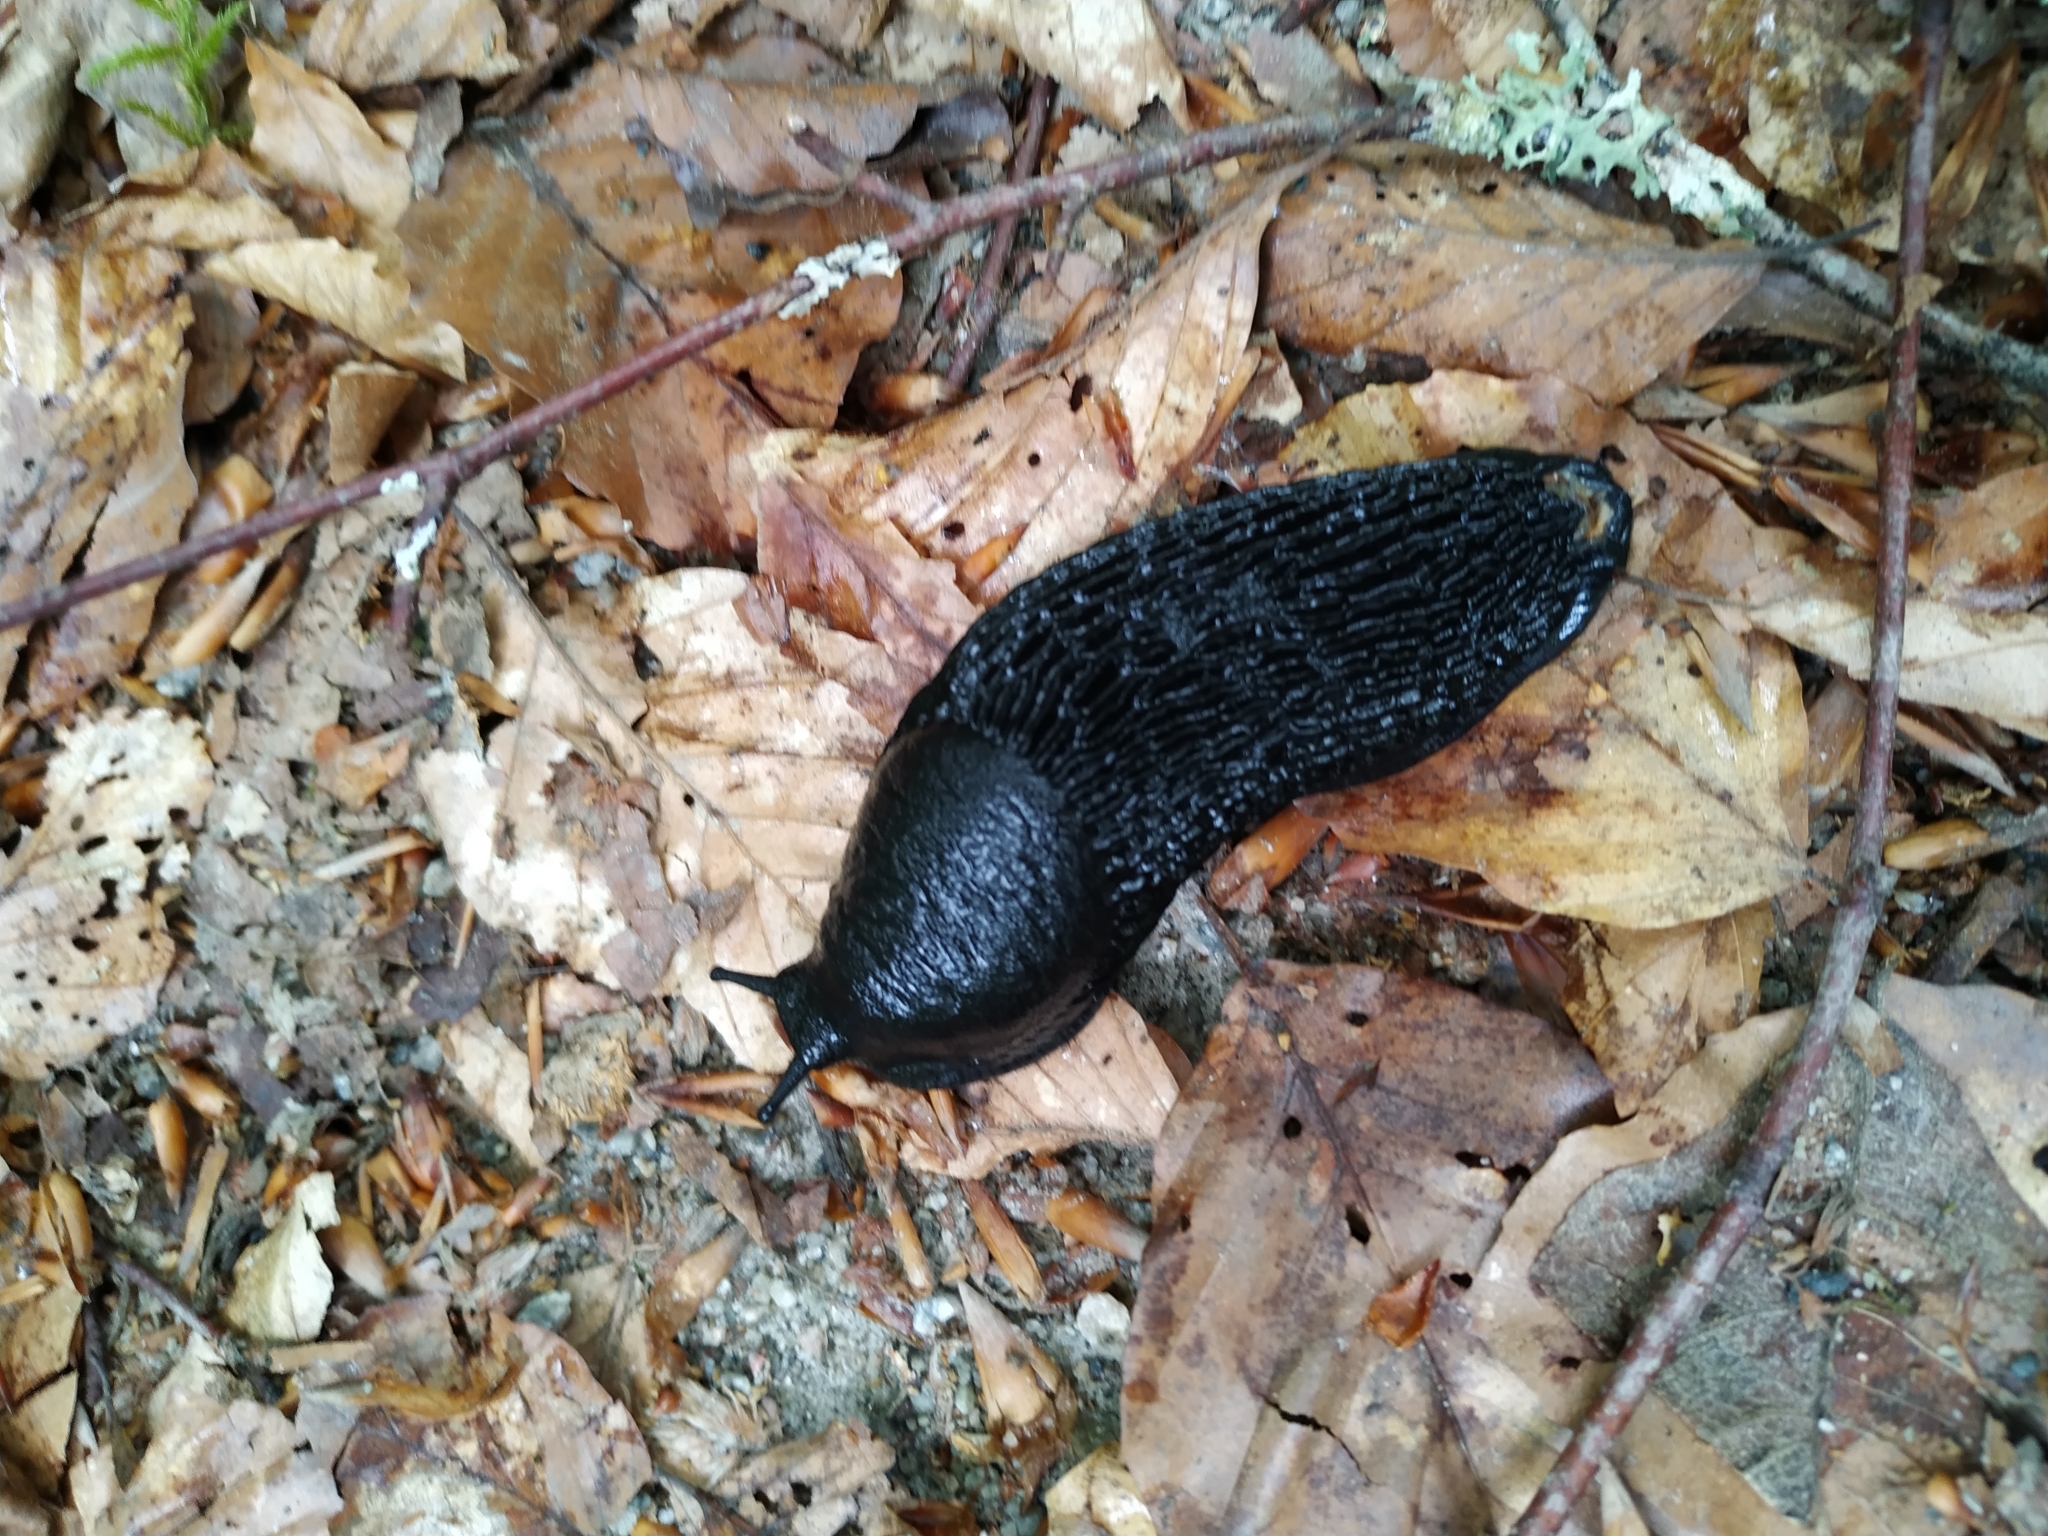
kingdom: Animalia
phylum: Mollusca
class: Gastropoda
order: Stylommatophora
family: Arionidae
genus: Arion
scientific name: Arion ater
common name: Black arion
